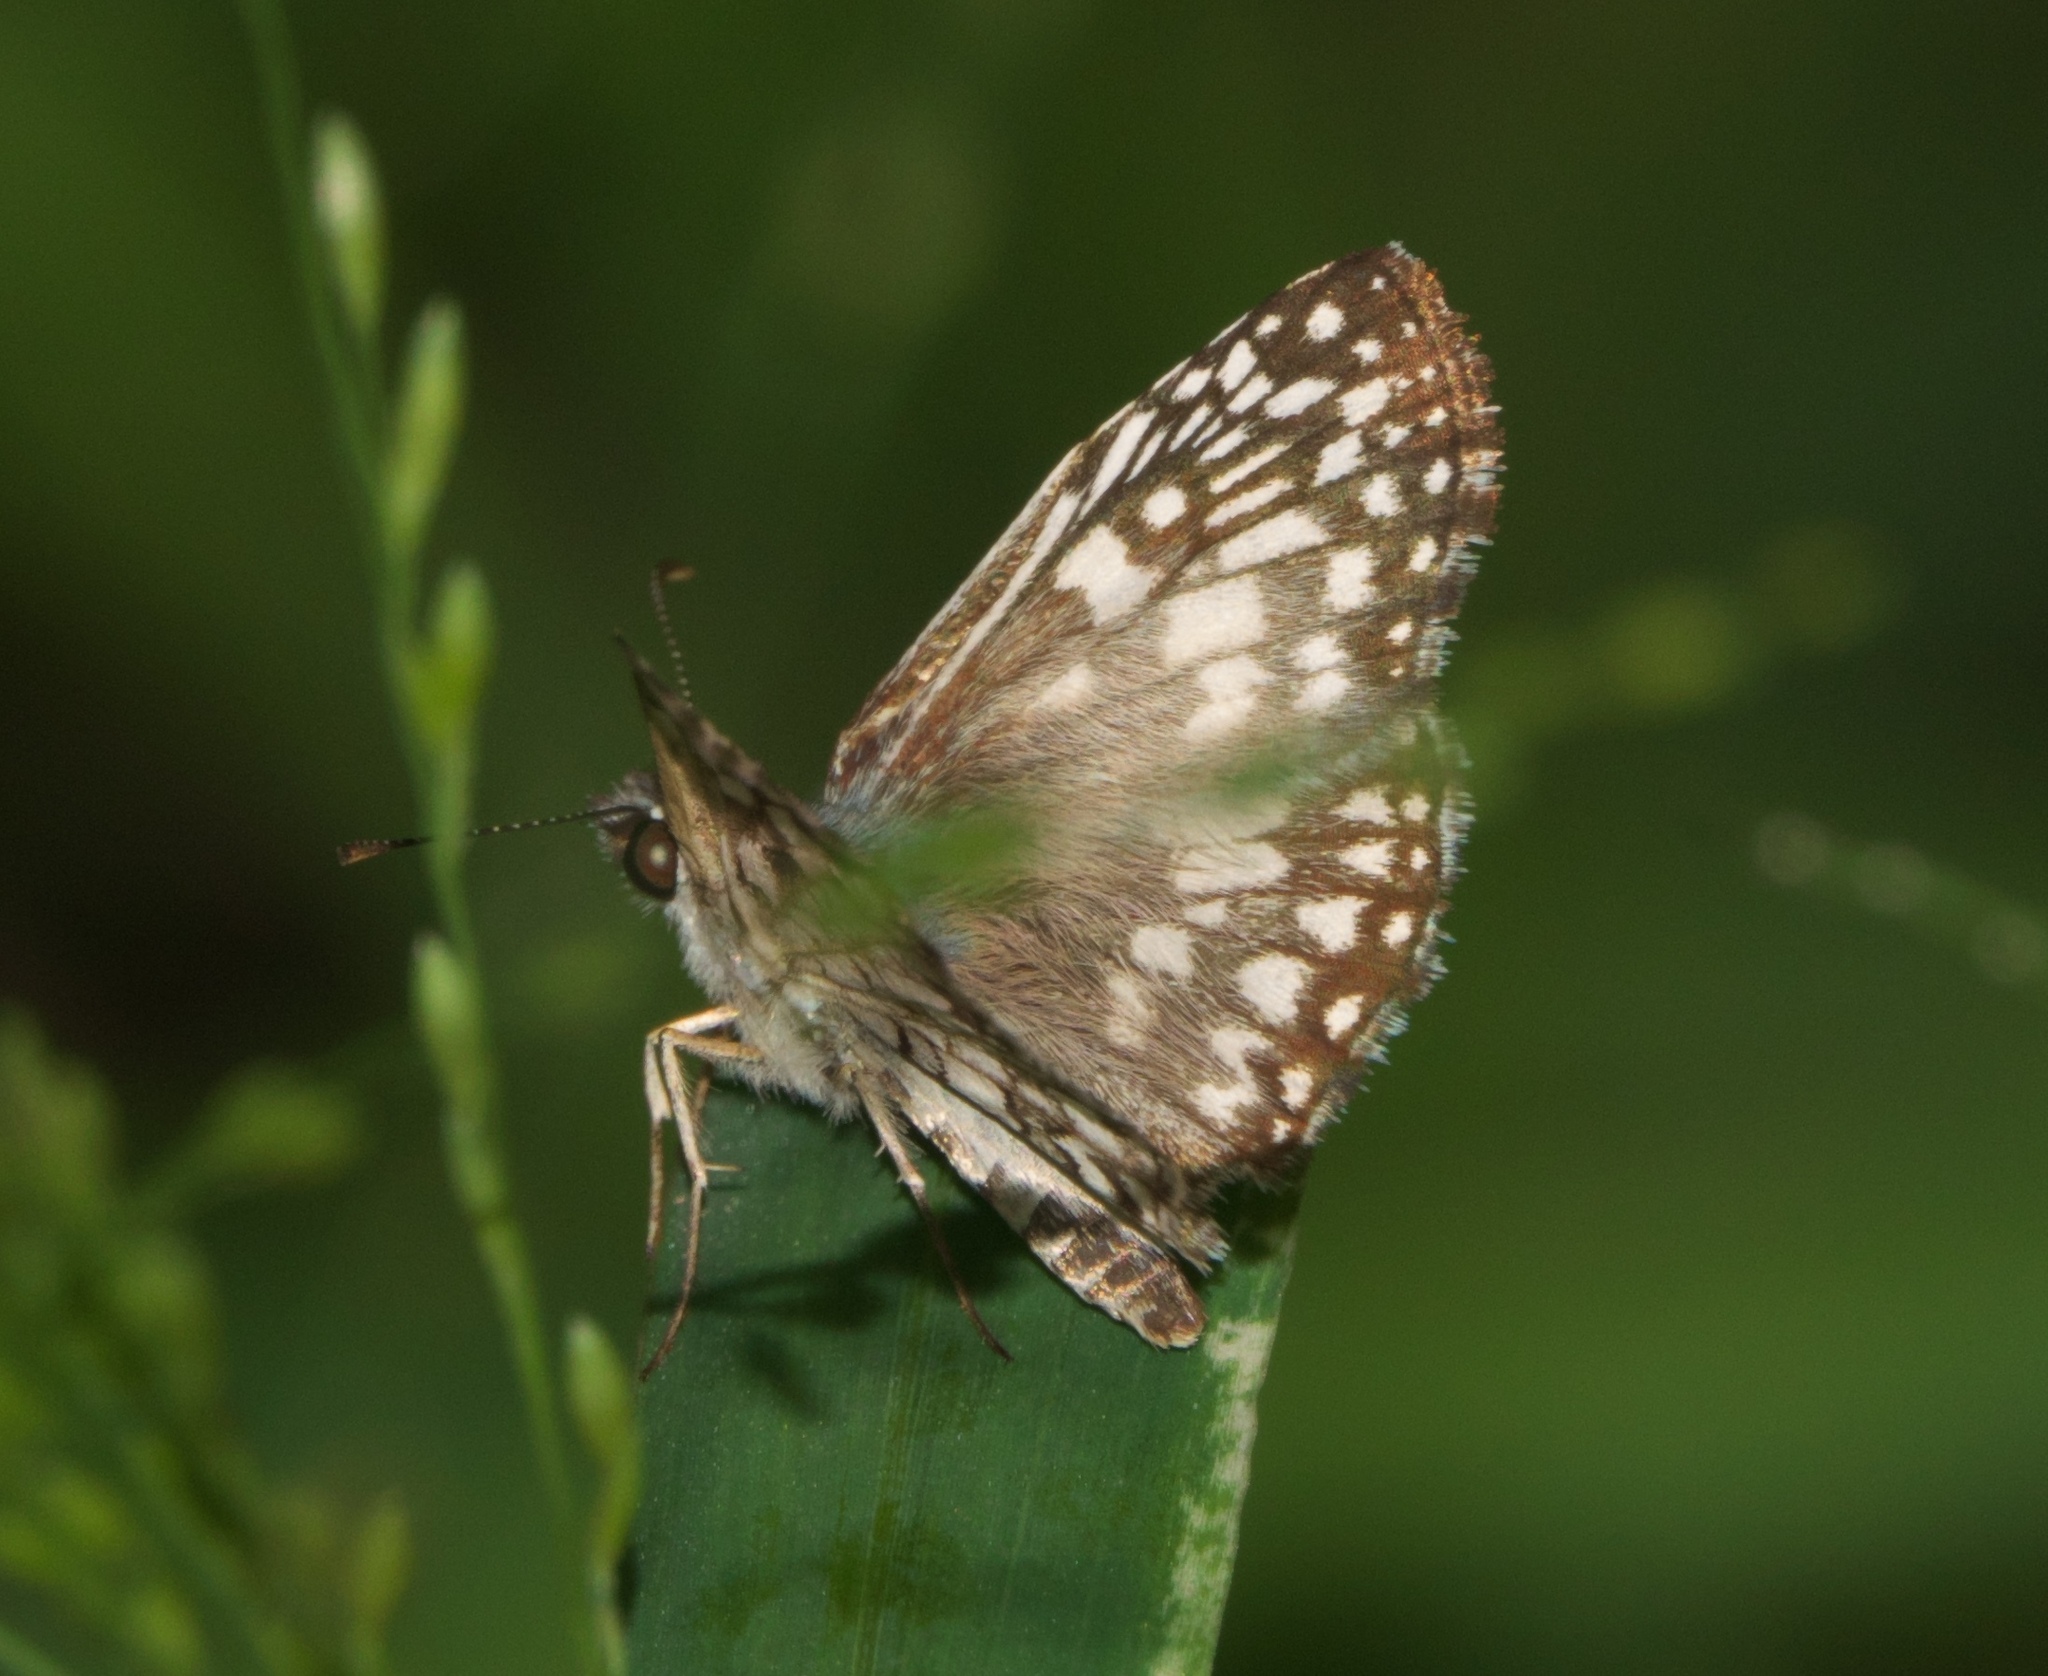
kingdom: Animalia
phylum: Arthropoda
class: Insecta
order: Lepidoptera
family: Hesperiidae
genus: Pyrgus
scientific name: Pyrgus oileus
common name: Tropical checkered-skipper
